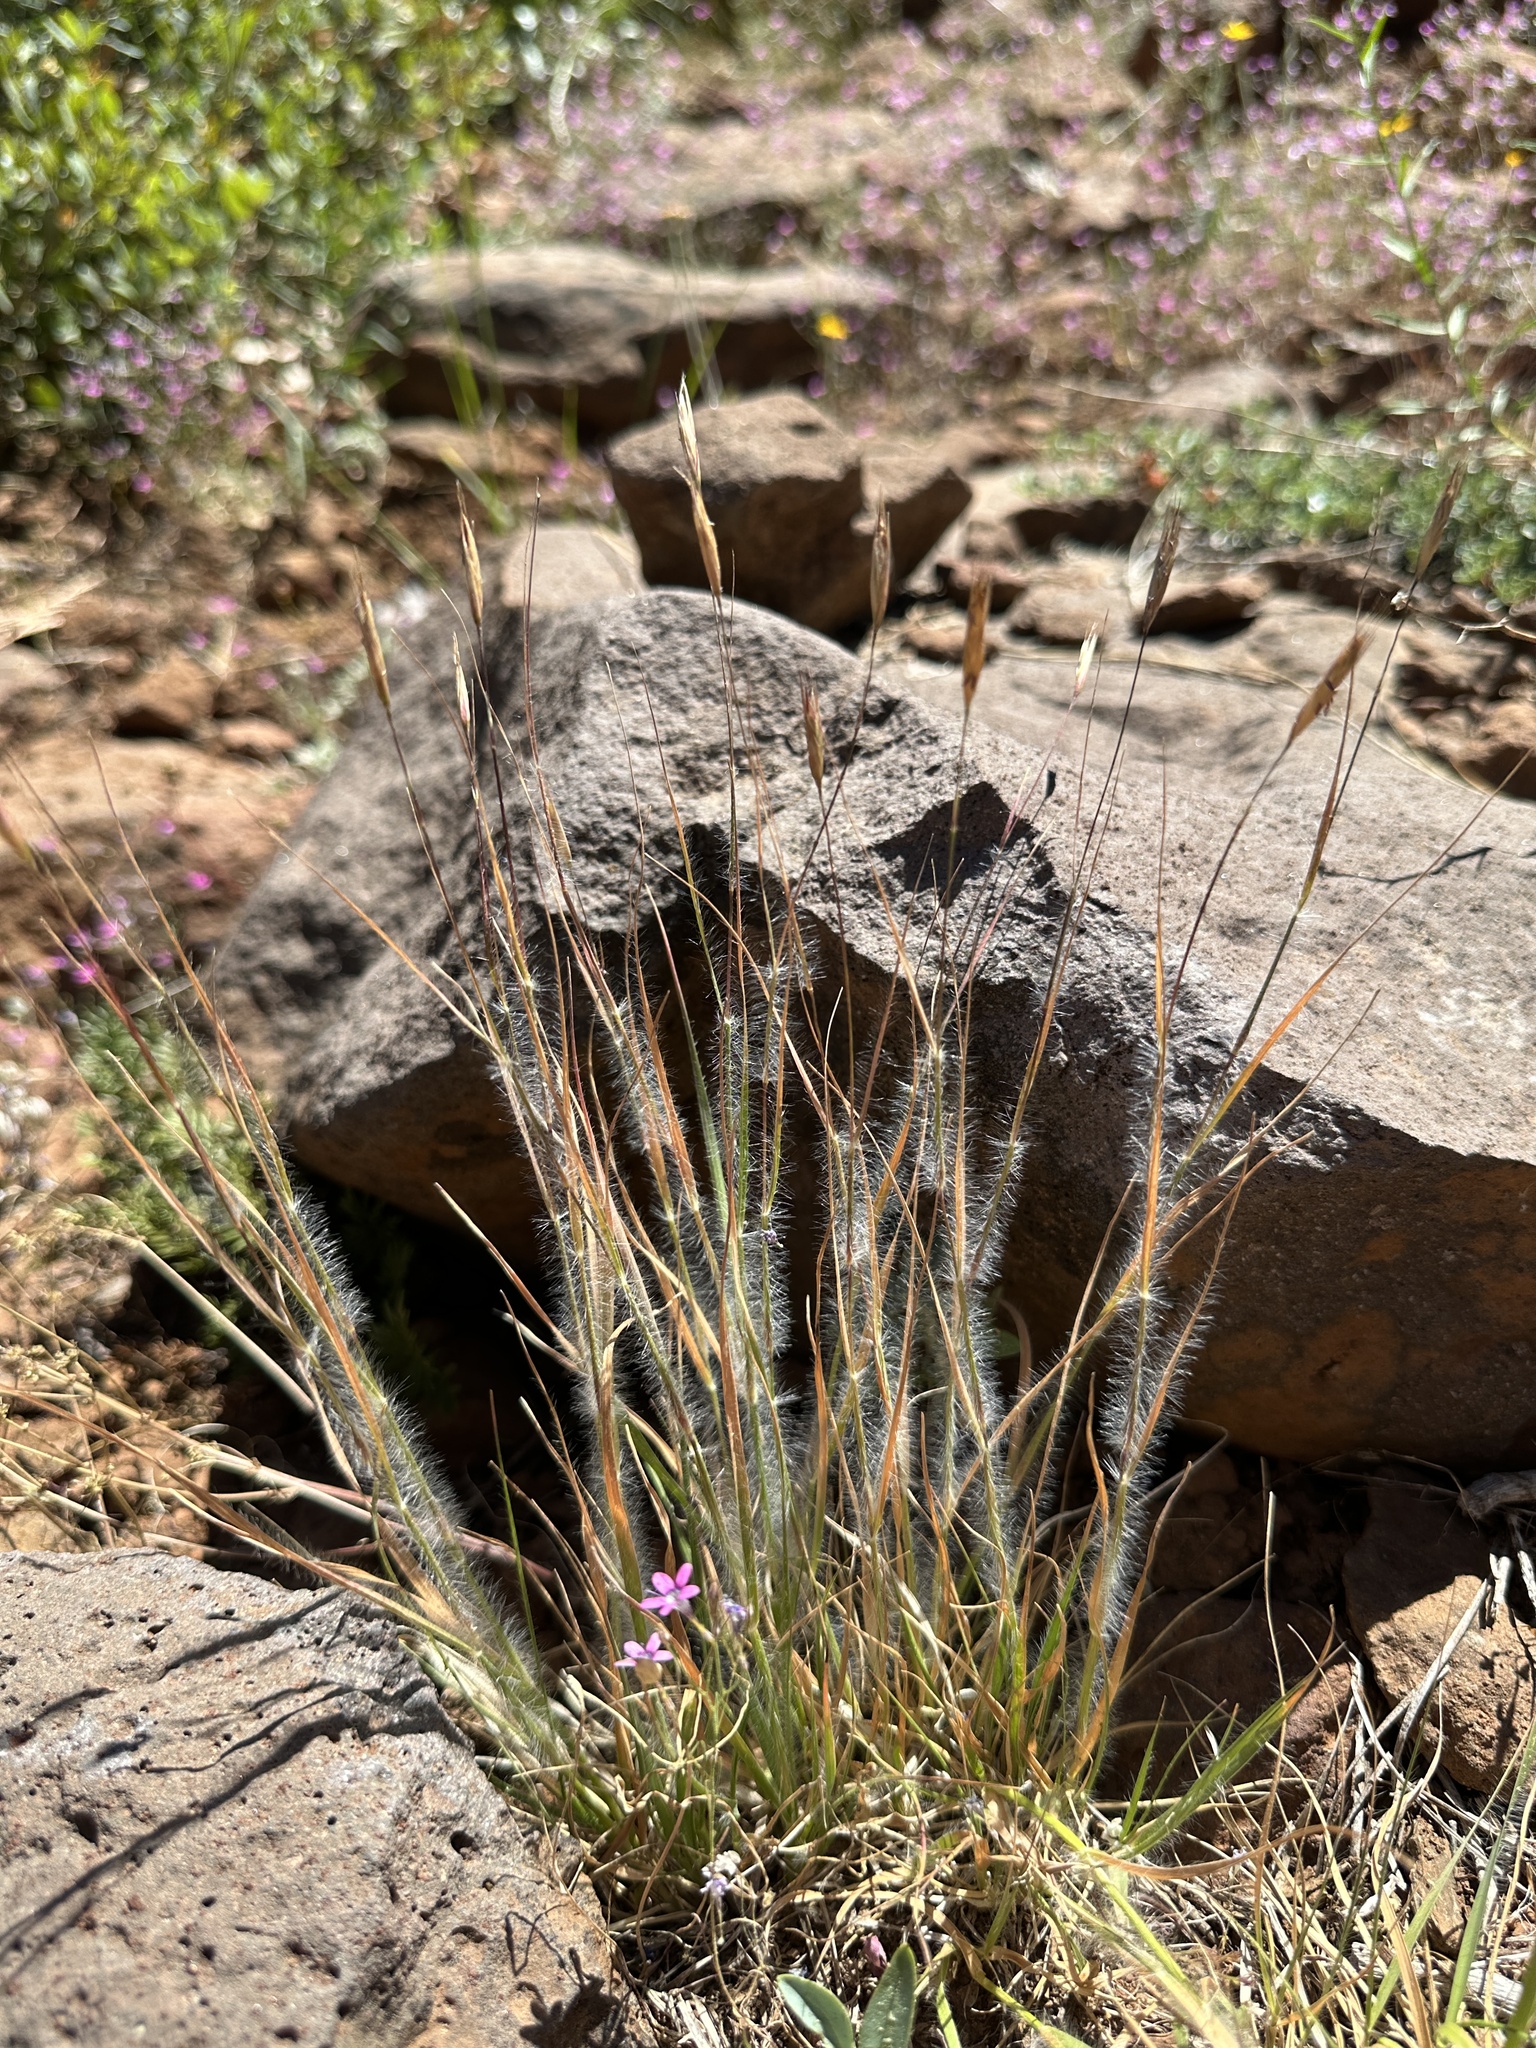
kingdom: Plantae
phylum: Tracheophyta
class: Liliopsida
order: Poales
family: Poaceae
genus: Danthonia
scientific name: Danthonia unispicata
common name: Few-flowered oatgrass
